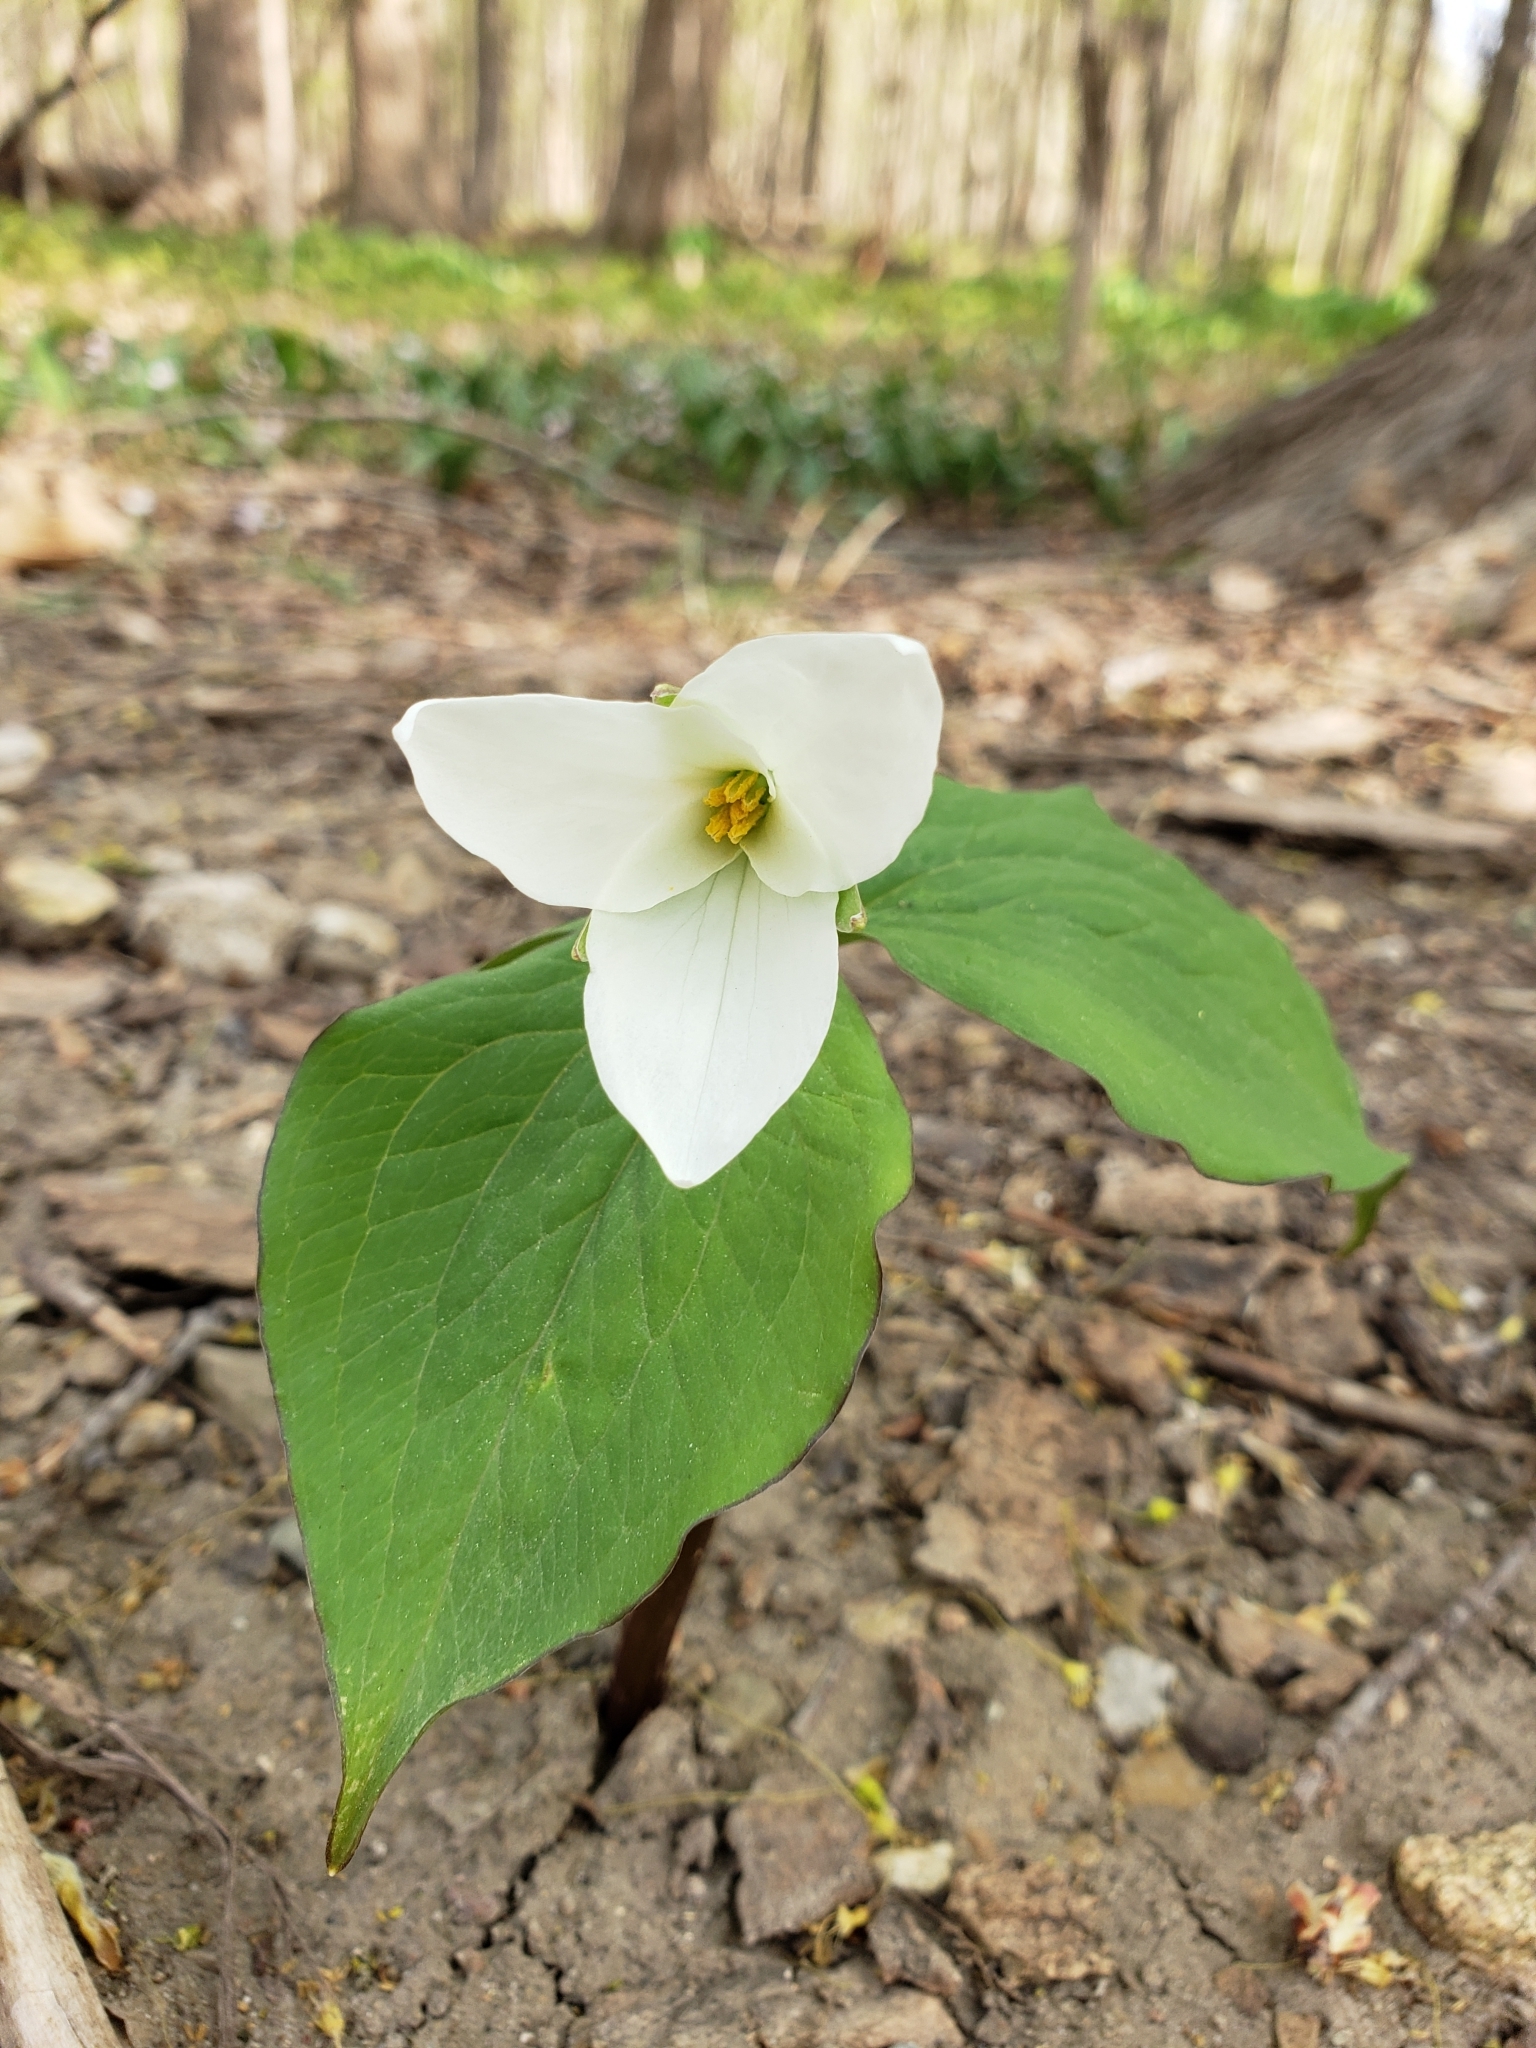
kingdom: Plantae
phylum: Tracheophyta
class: Liliopsida
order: Liliales
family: Melanthiaceae
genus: Trillium
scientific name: Trillium grandiflorum
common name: Great white trillium
